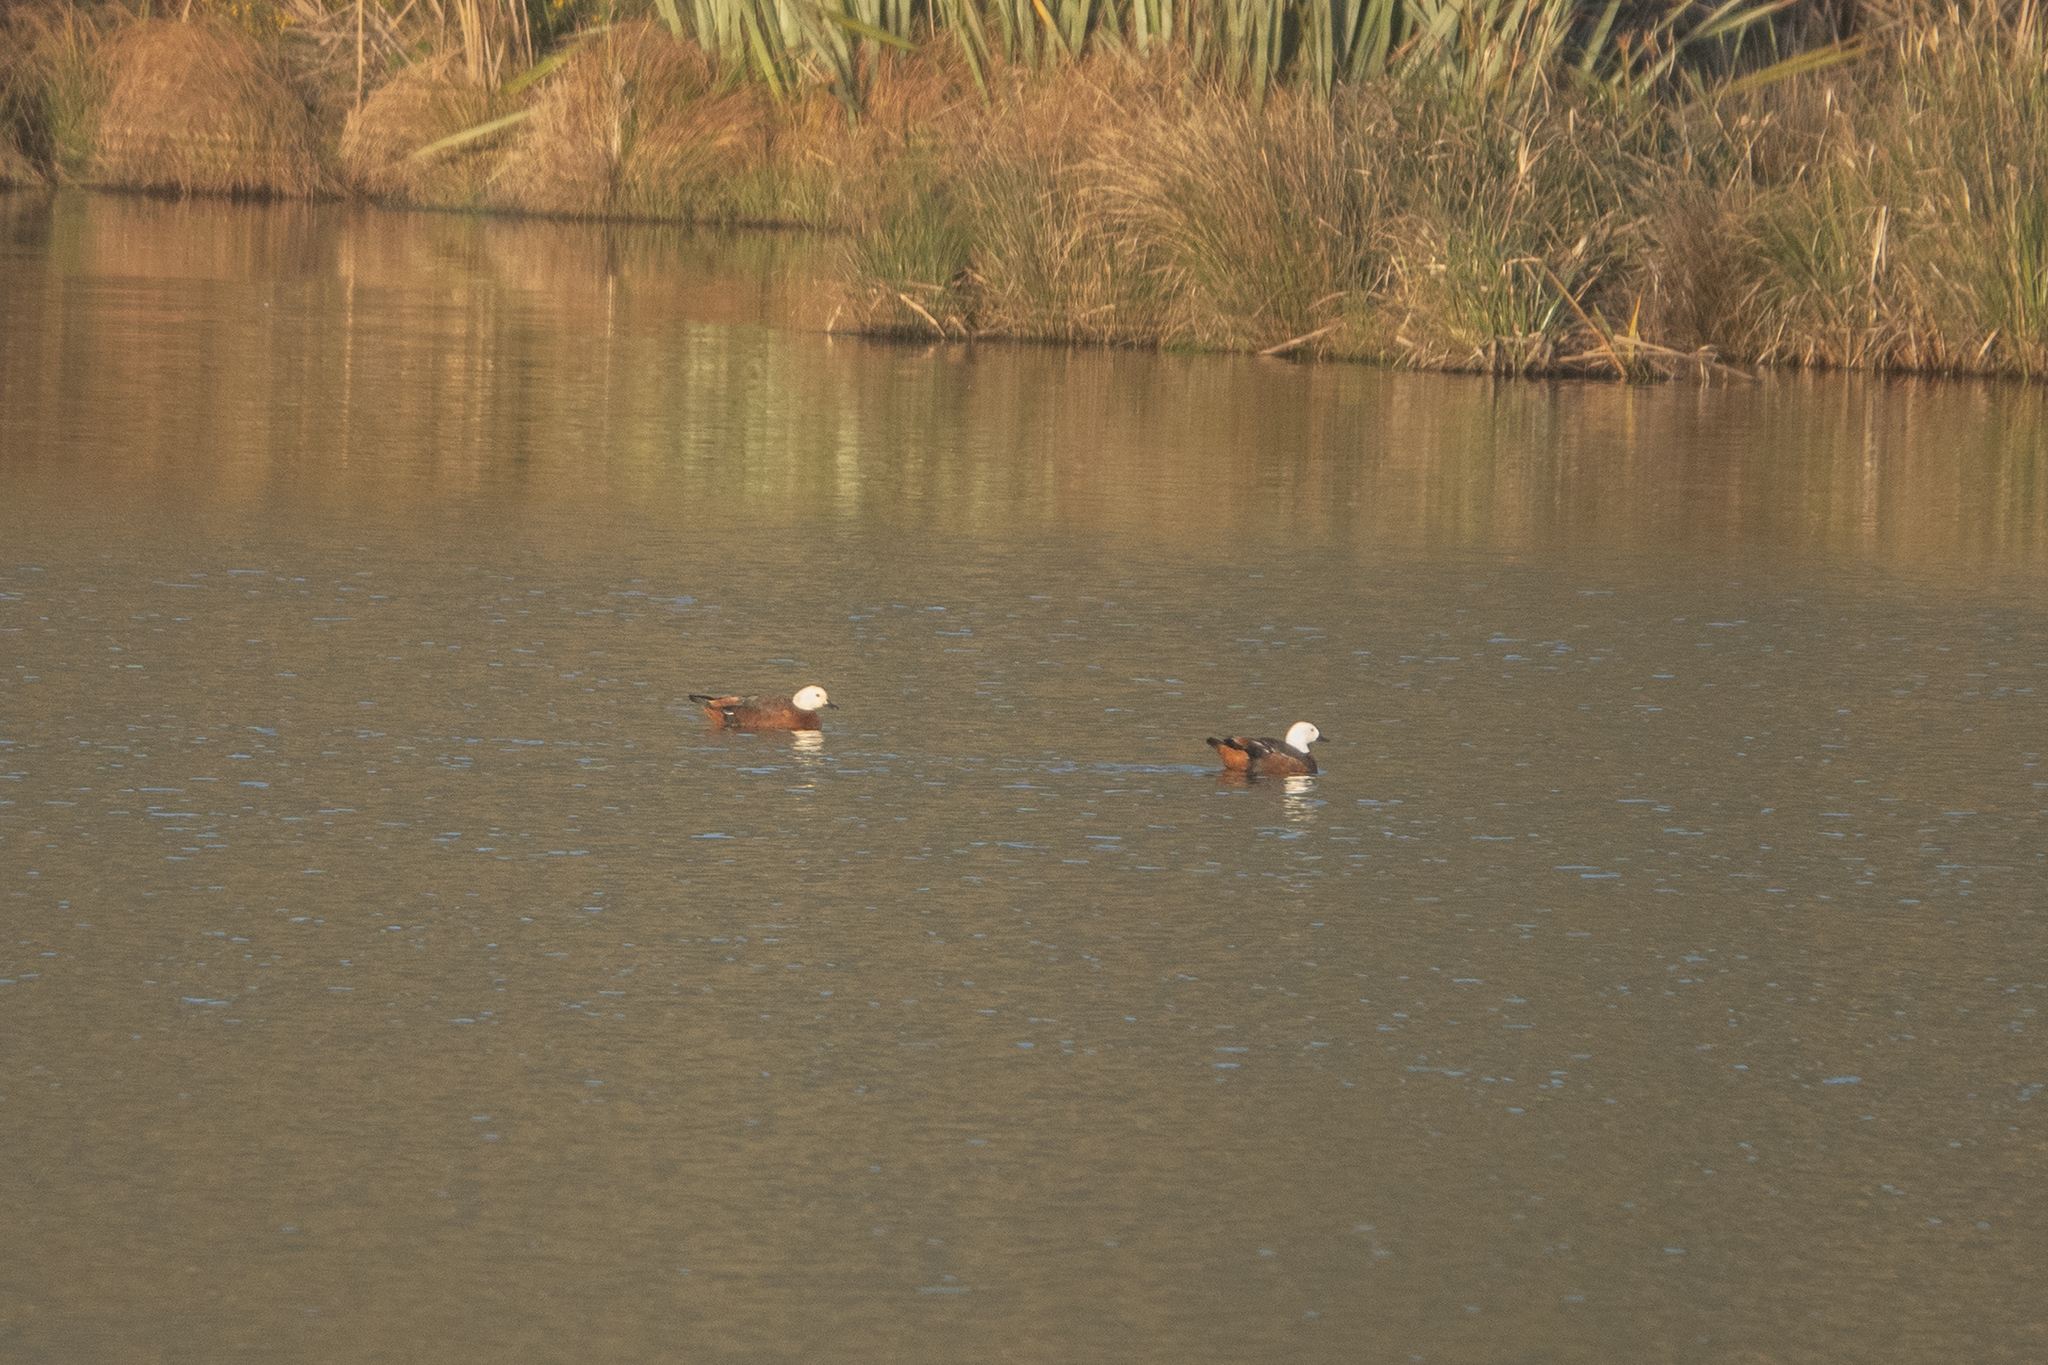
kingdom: Animalia
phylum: Chordata
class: Aves
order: Anseriformes
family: Anatidae
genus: Tadorna
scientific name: Tadorna variegata
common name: Paradise shelduck
